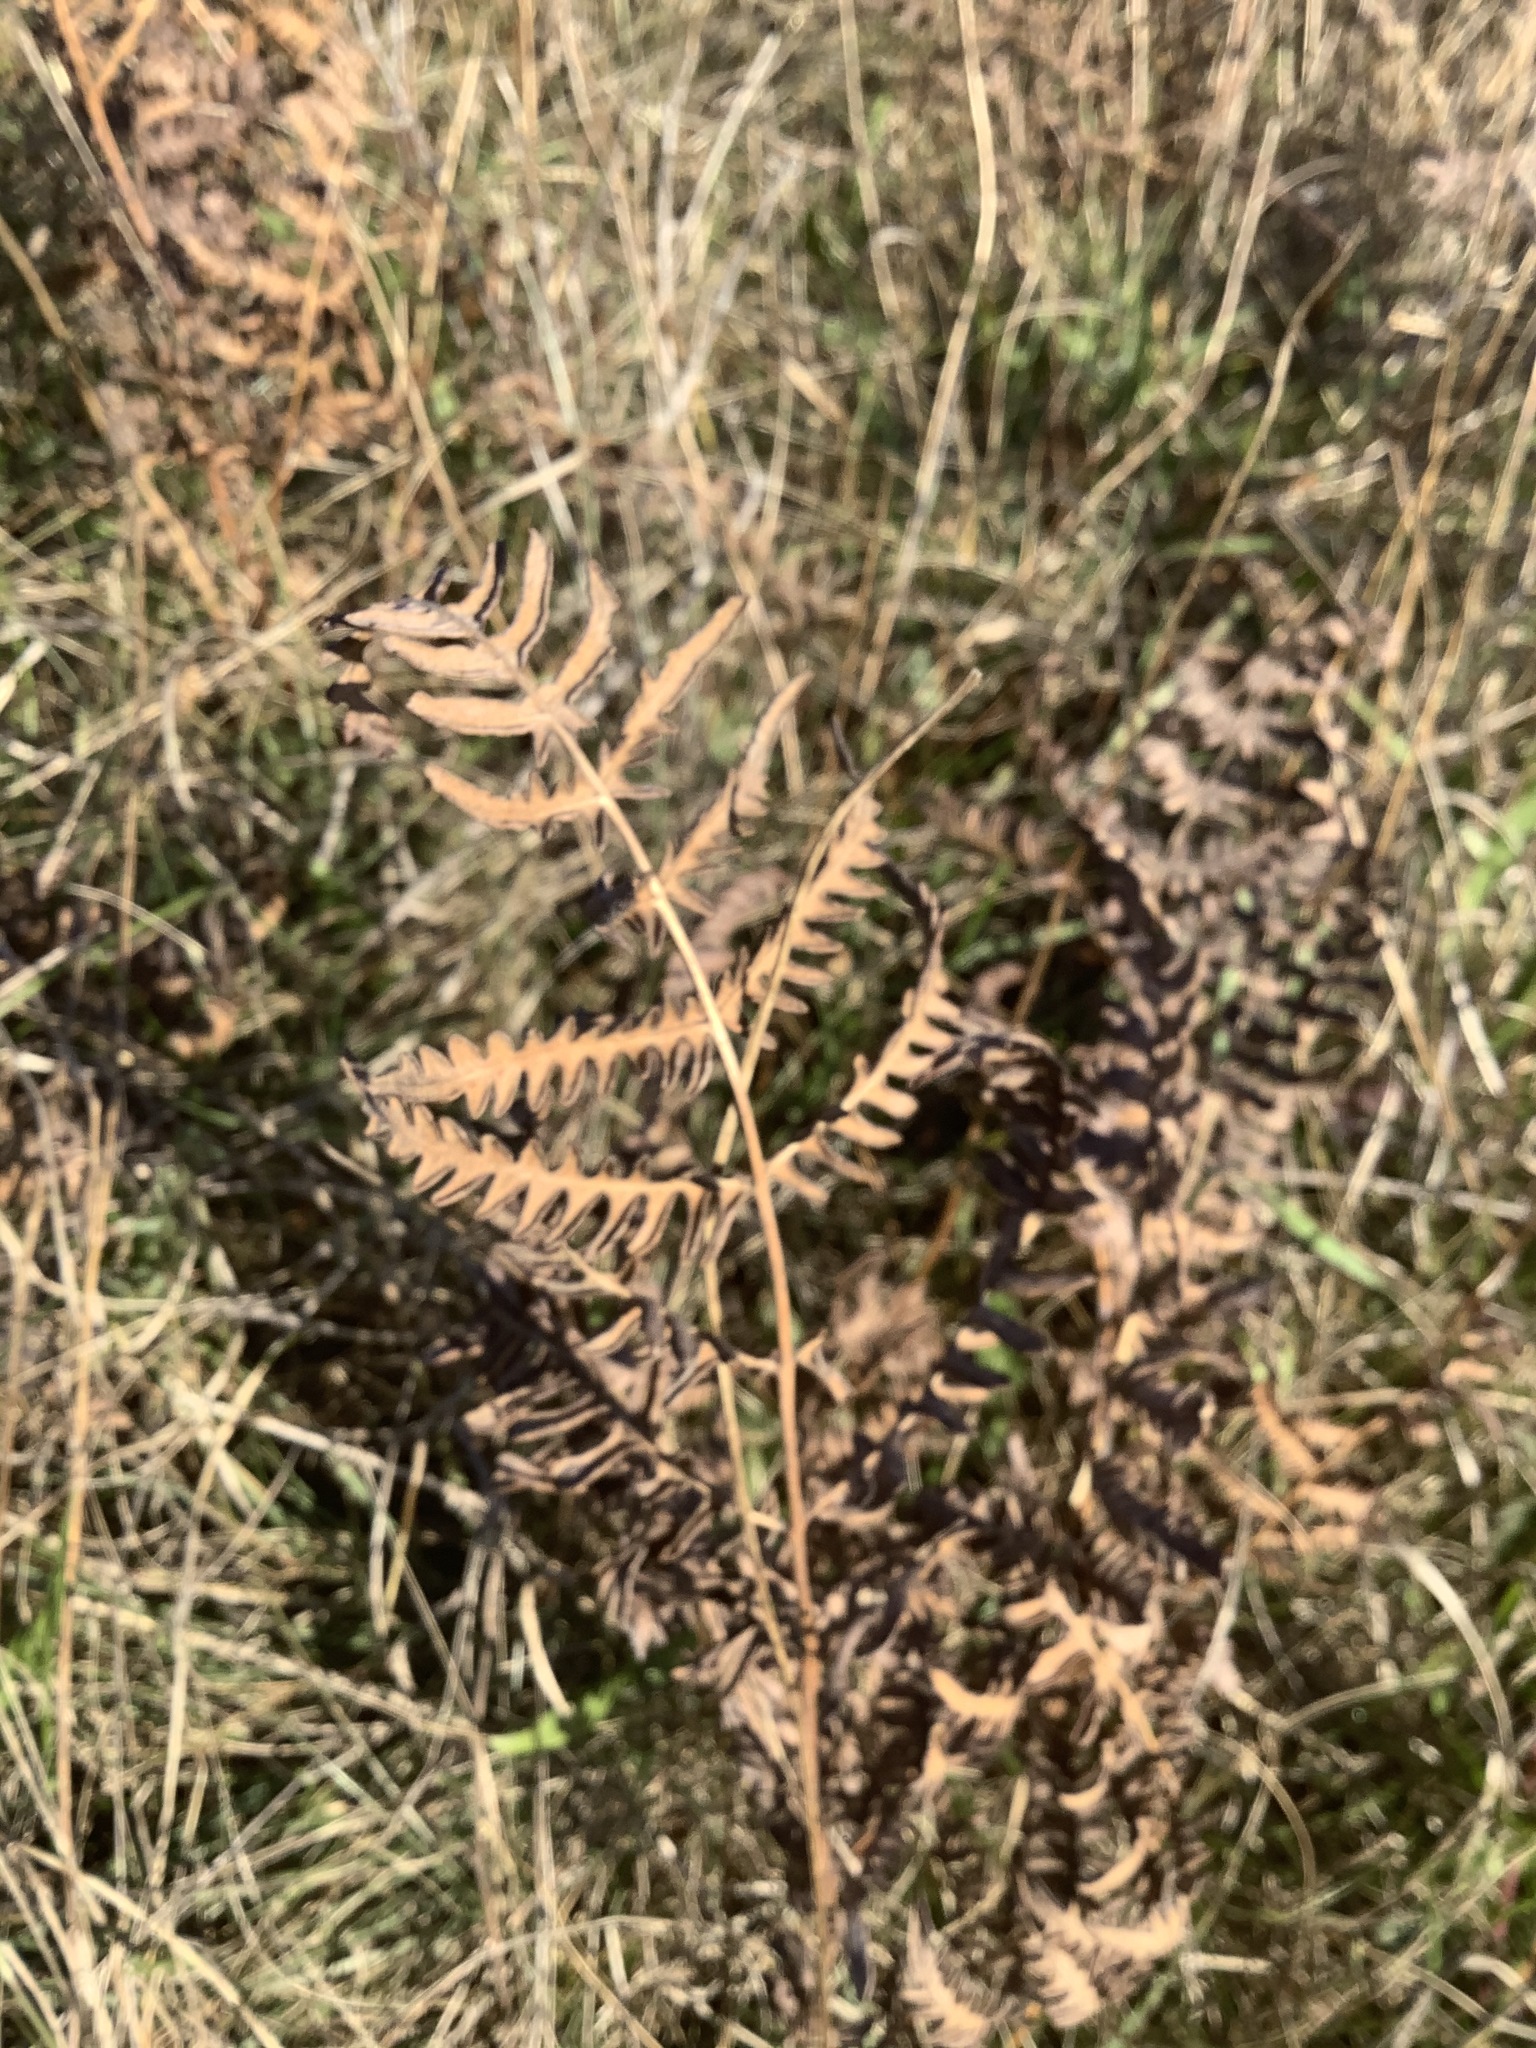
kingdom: Plantae
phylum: Tracheophyta
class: Polypodiopsida
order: Polypodiales
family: Dennstaedtiaceae
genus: Pteridium
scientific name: Pteridium aquilinum
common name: Bracken
